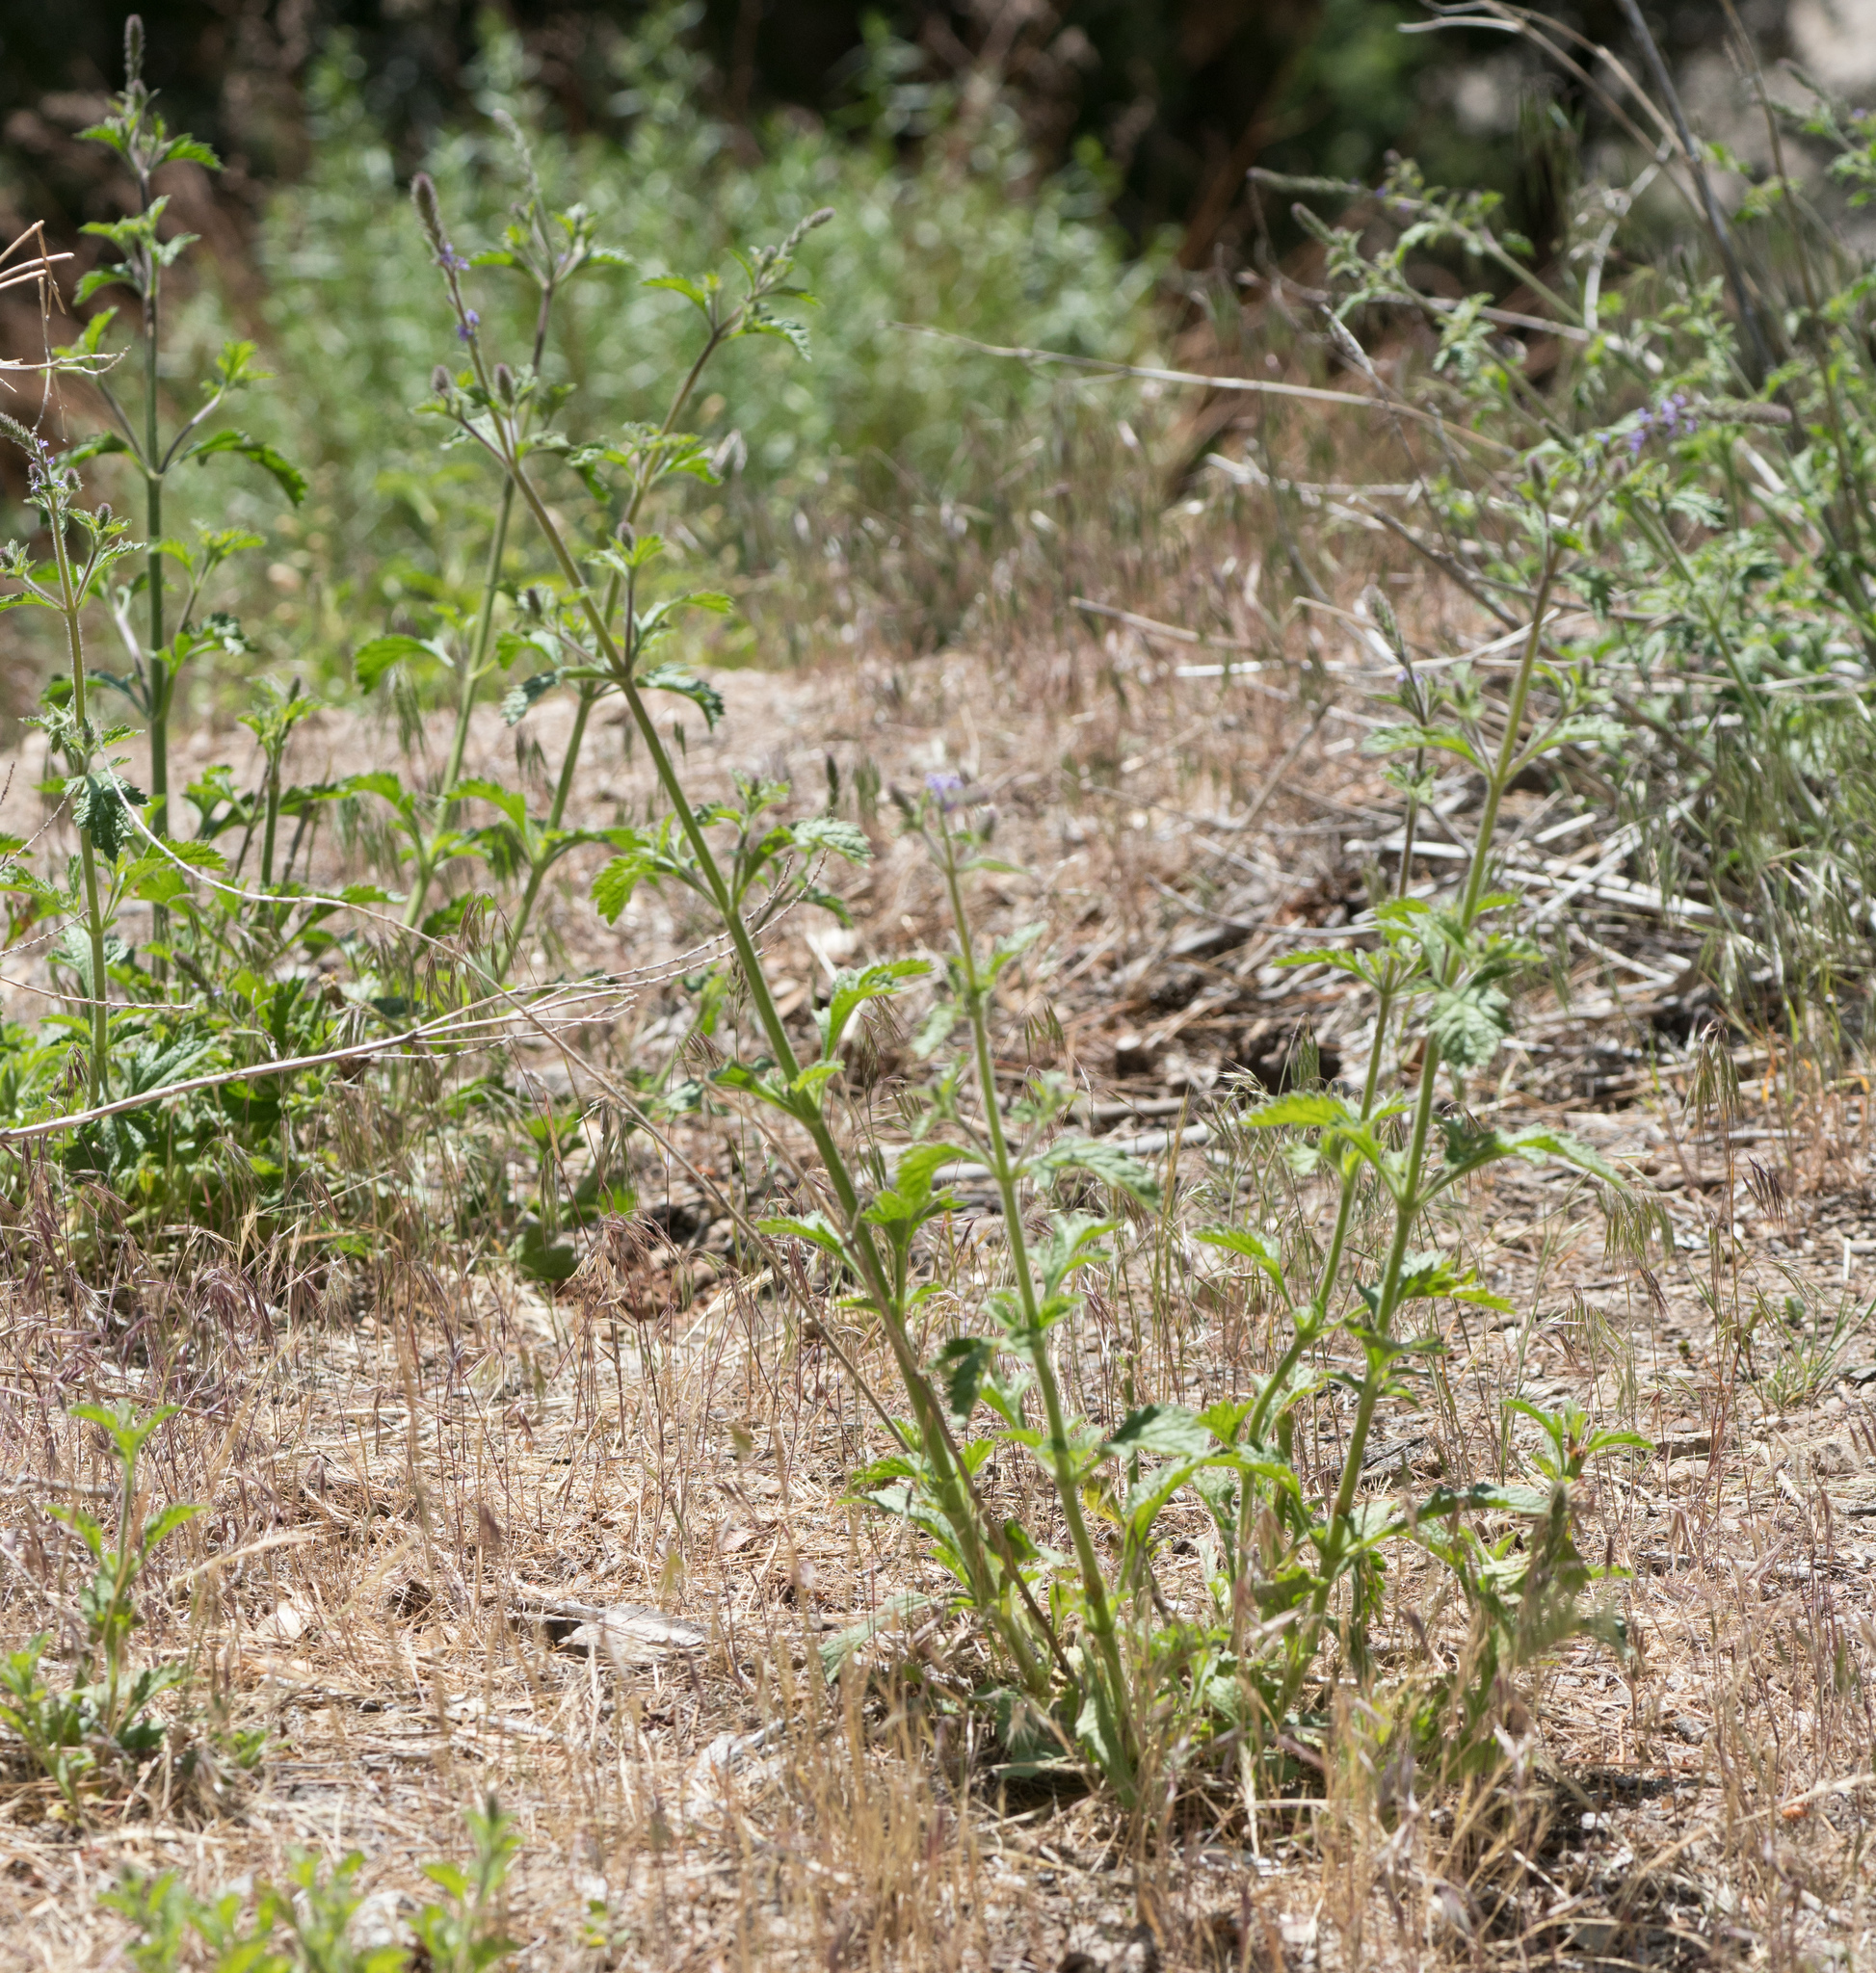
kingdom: Plantae
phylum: Tracheophyta
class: Magnoliopsida
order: Lamiales
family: Verbenaceae
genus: Verbena
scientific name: Verbena lasiostachys
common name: Vervain
